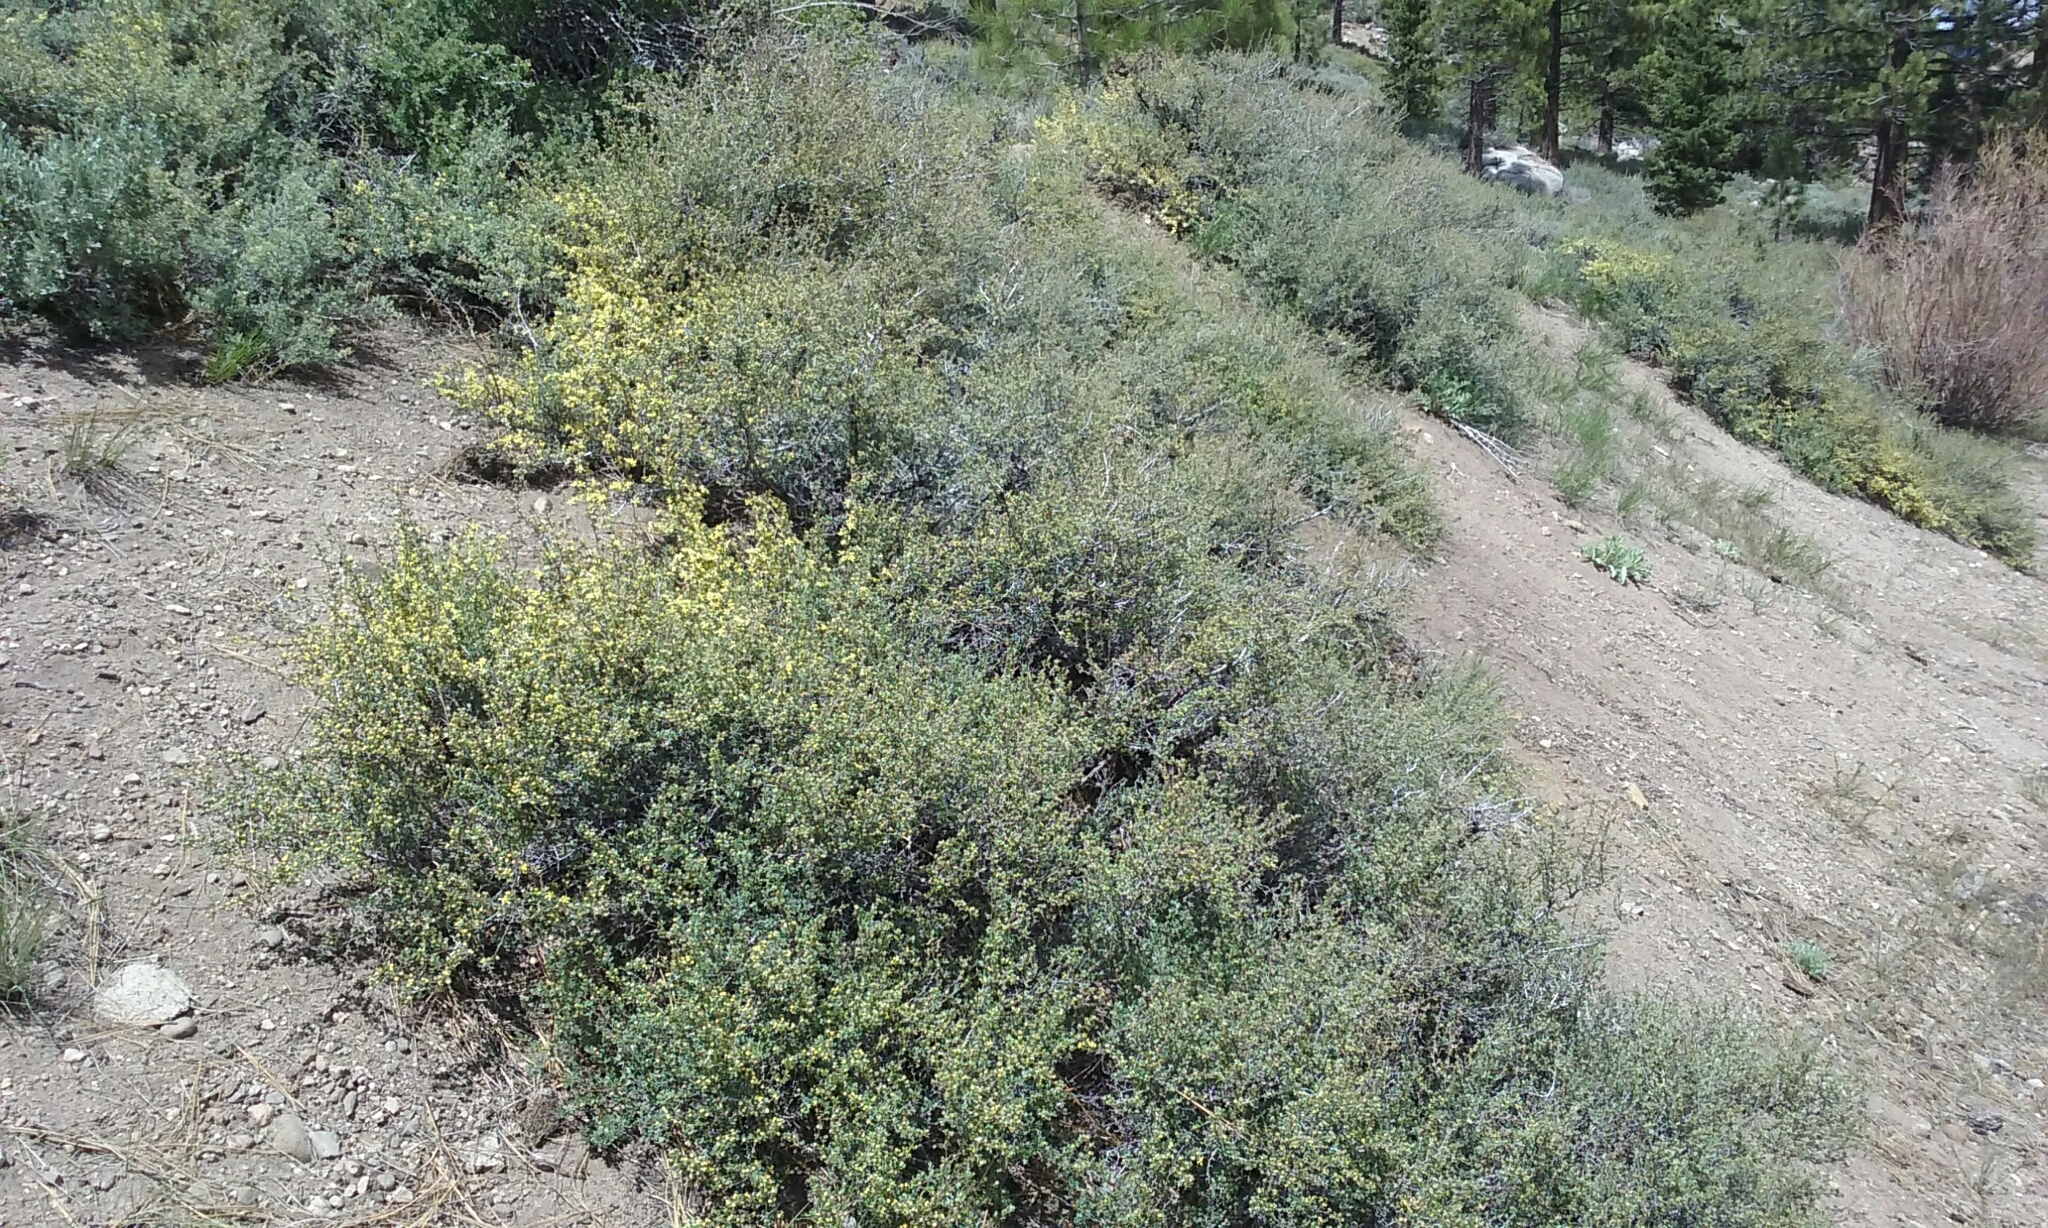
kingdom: Plantae
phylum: Tracheophyta
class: Magnoliopsida
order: Rosales
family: Rosaceae
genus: Purshia
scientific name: Purshia tridentata
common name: Antelope bitterbrush
